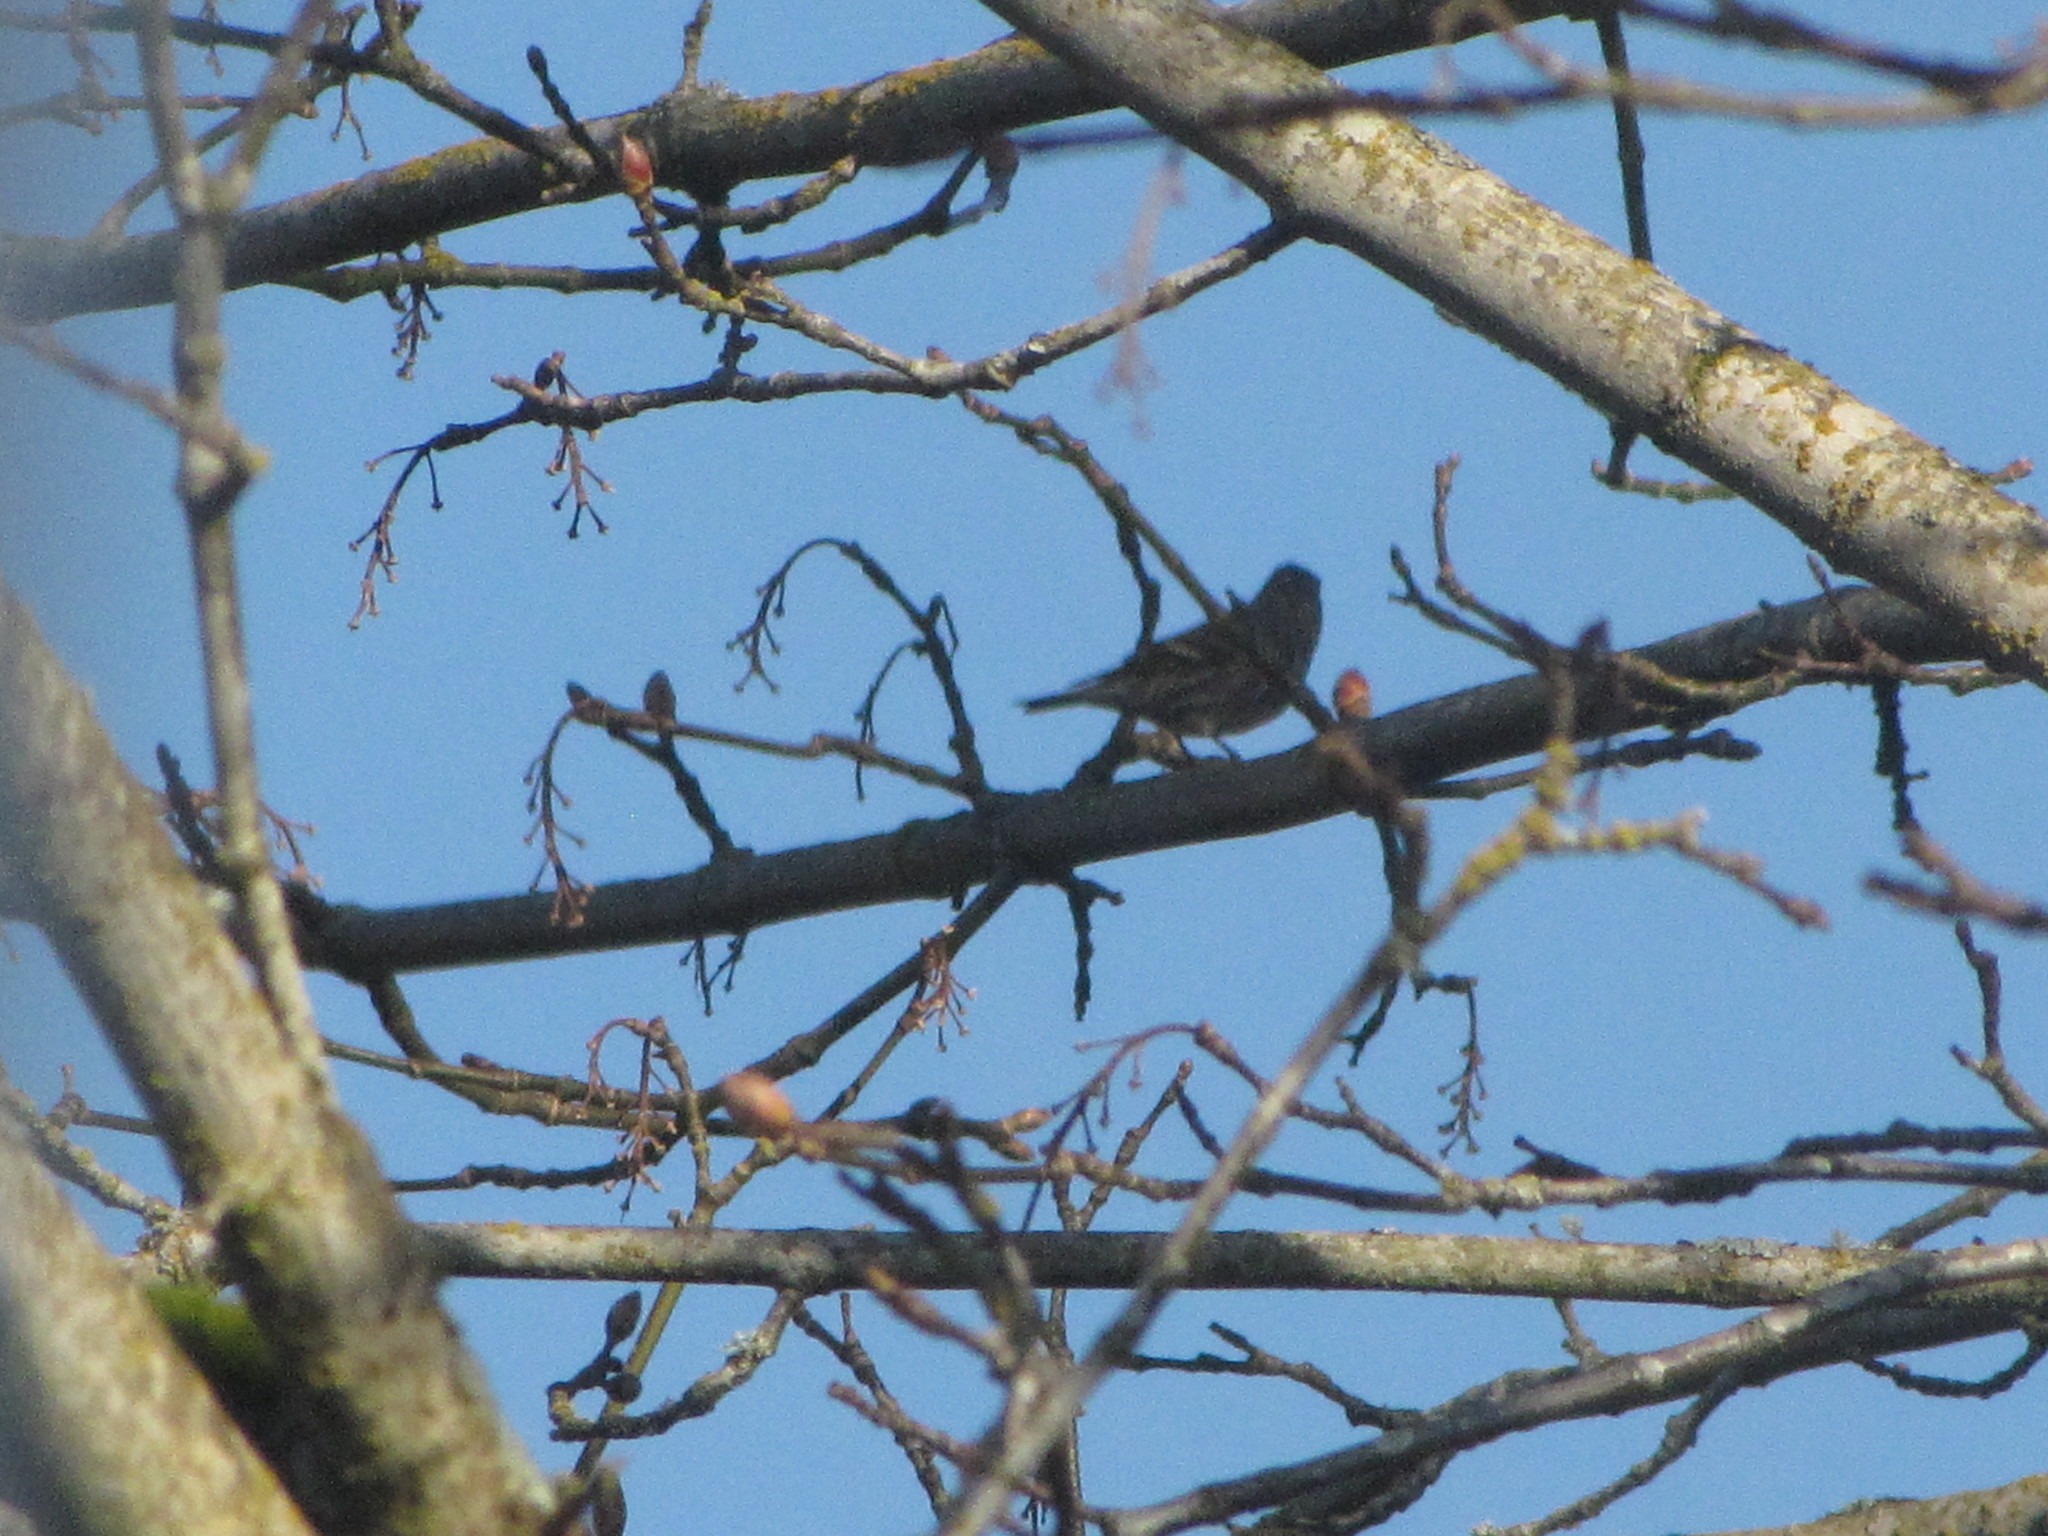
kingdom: Animalia
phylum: Chordata
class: Aves
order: Passeriformes
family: Fringillidae
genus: Spinus
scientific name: Spinus pinus
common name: Pine siskin
